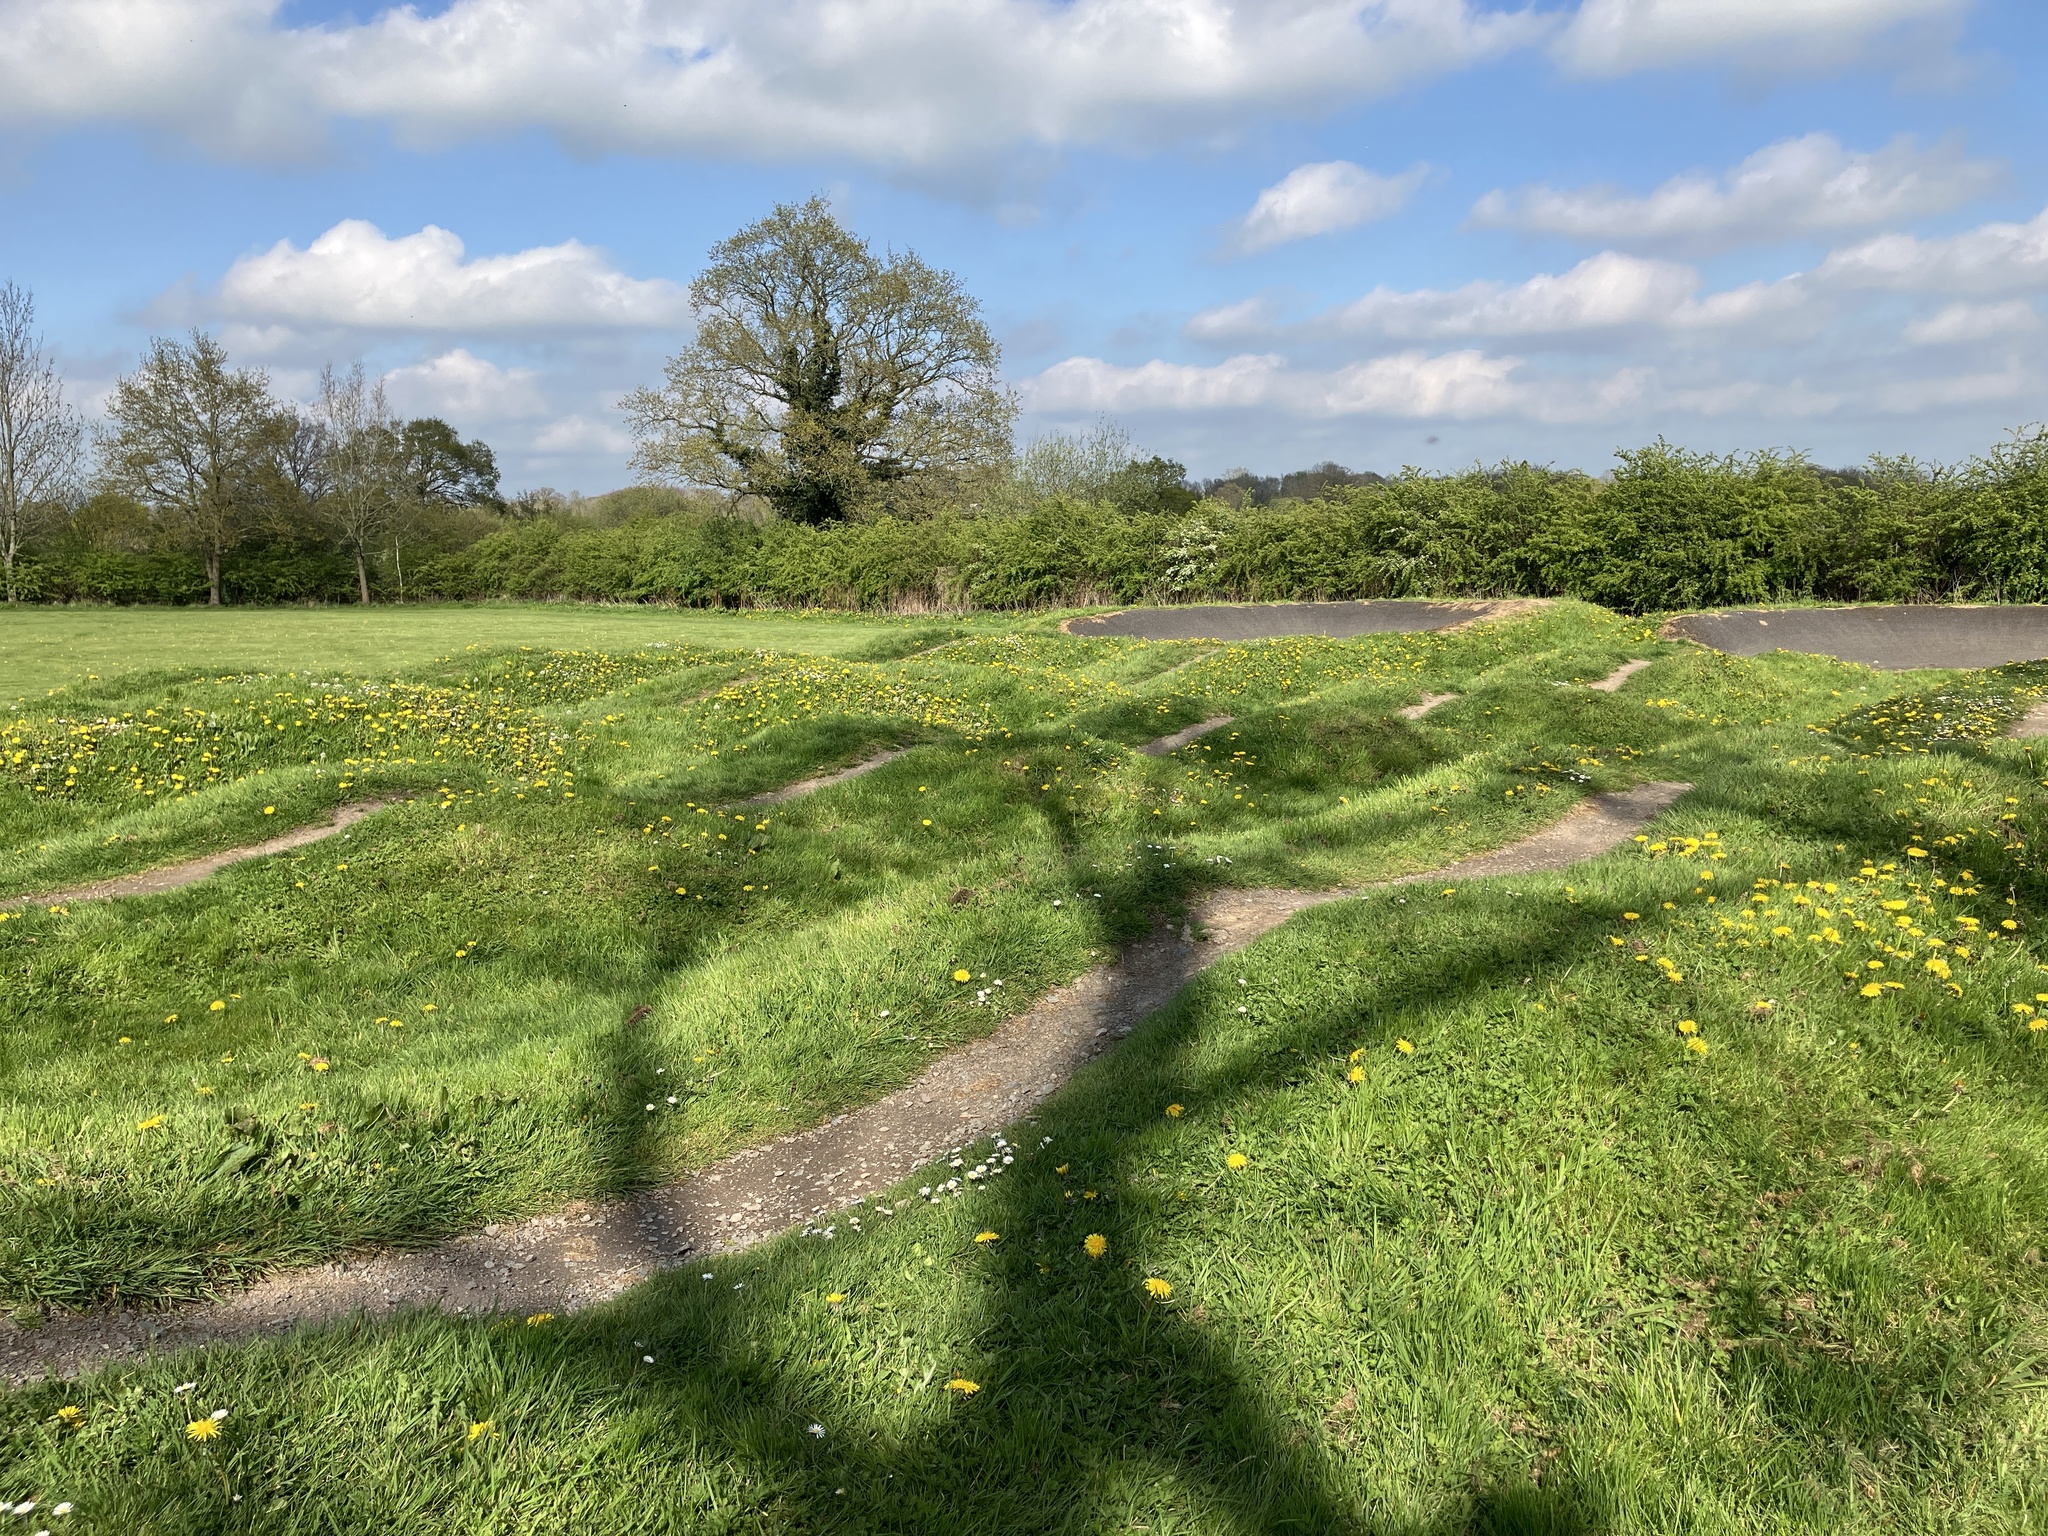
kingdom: Plantae
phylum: Tracheophyta
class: Magnoliopsida
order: Asterales
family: Asteraceae
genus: Taraxacum
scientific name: Taraxacum officinale
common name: Common dandelion
